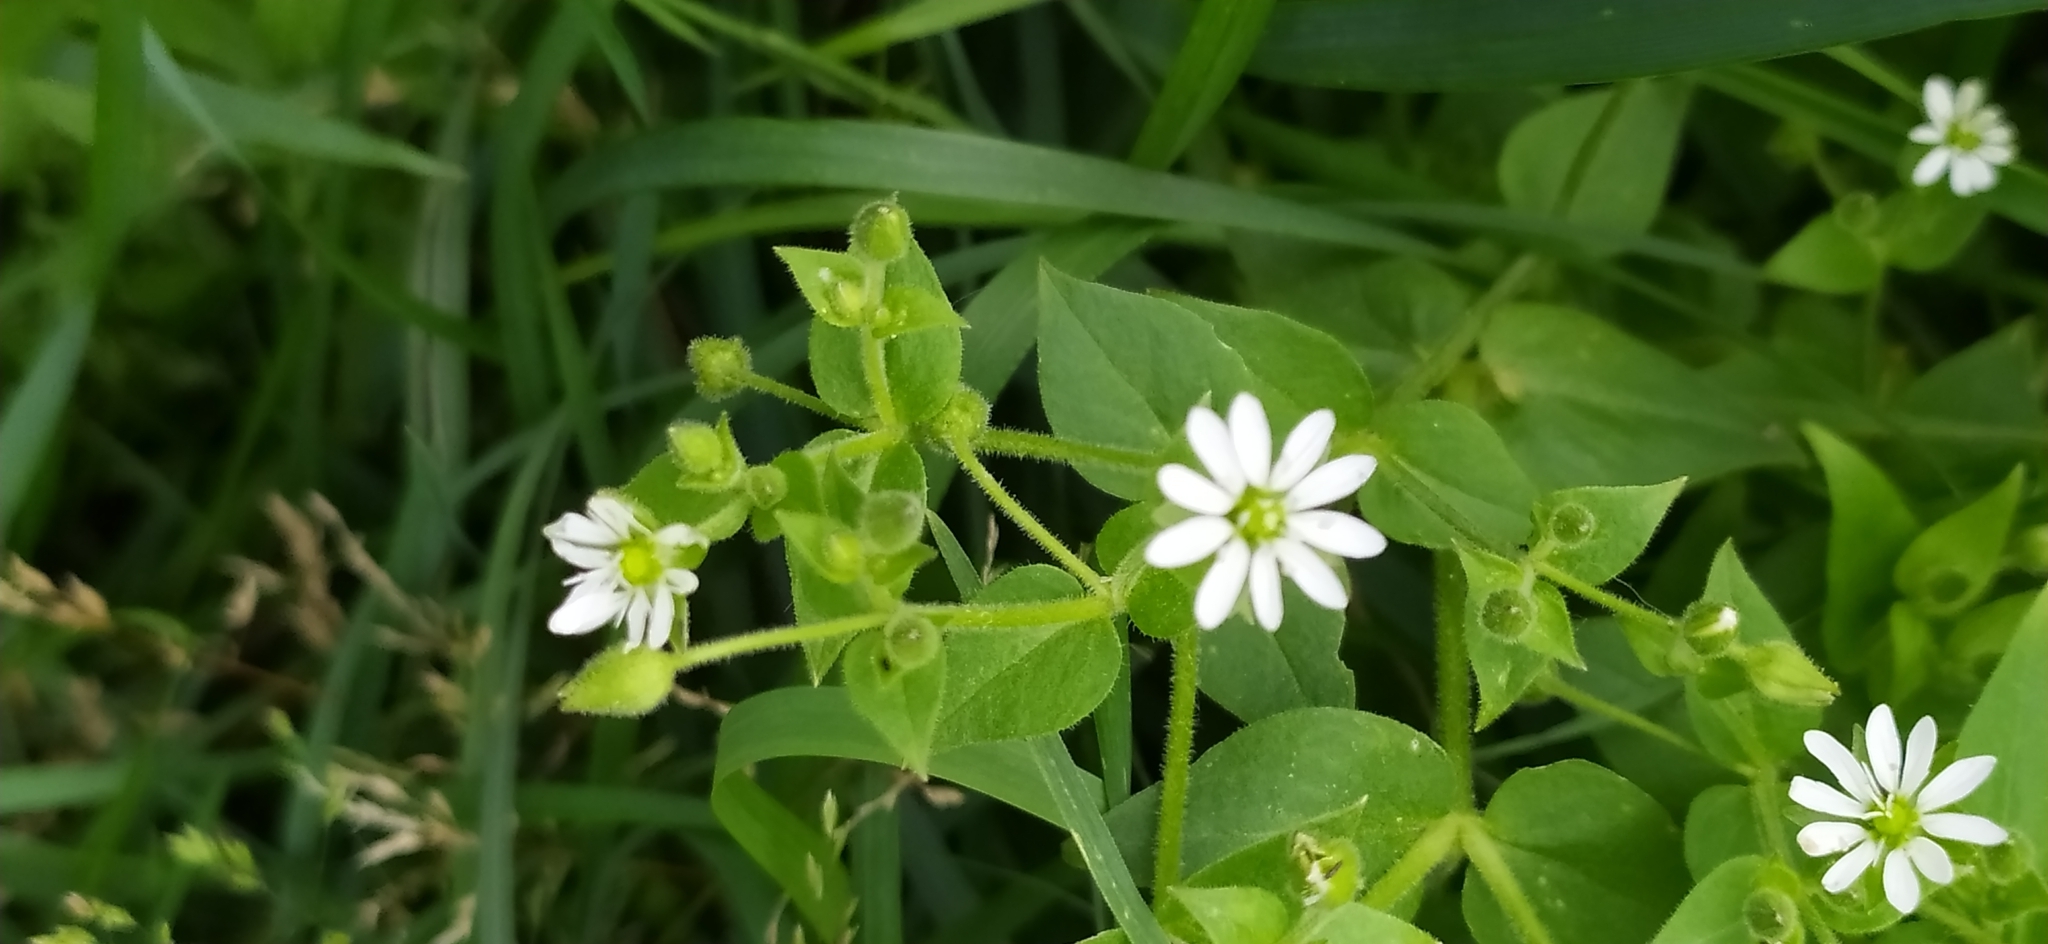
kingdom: Plantae
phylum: Tracheophyta
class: Magnoliopsida
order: Caryophyllales
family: Caryophyllaceae
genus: Stellaria
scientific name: Stellaria aquatica
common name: Water chickweed
